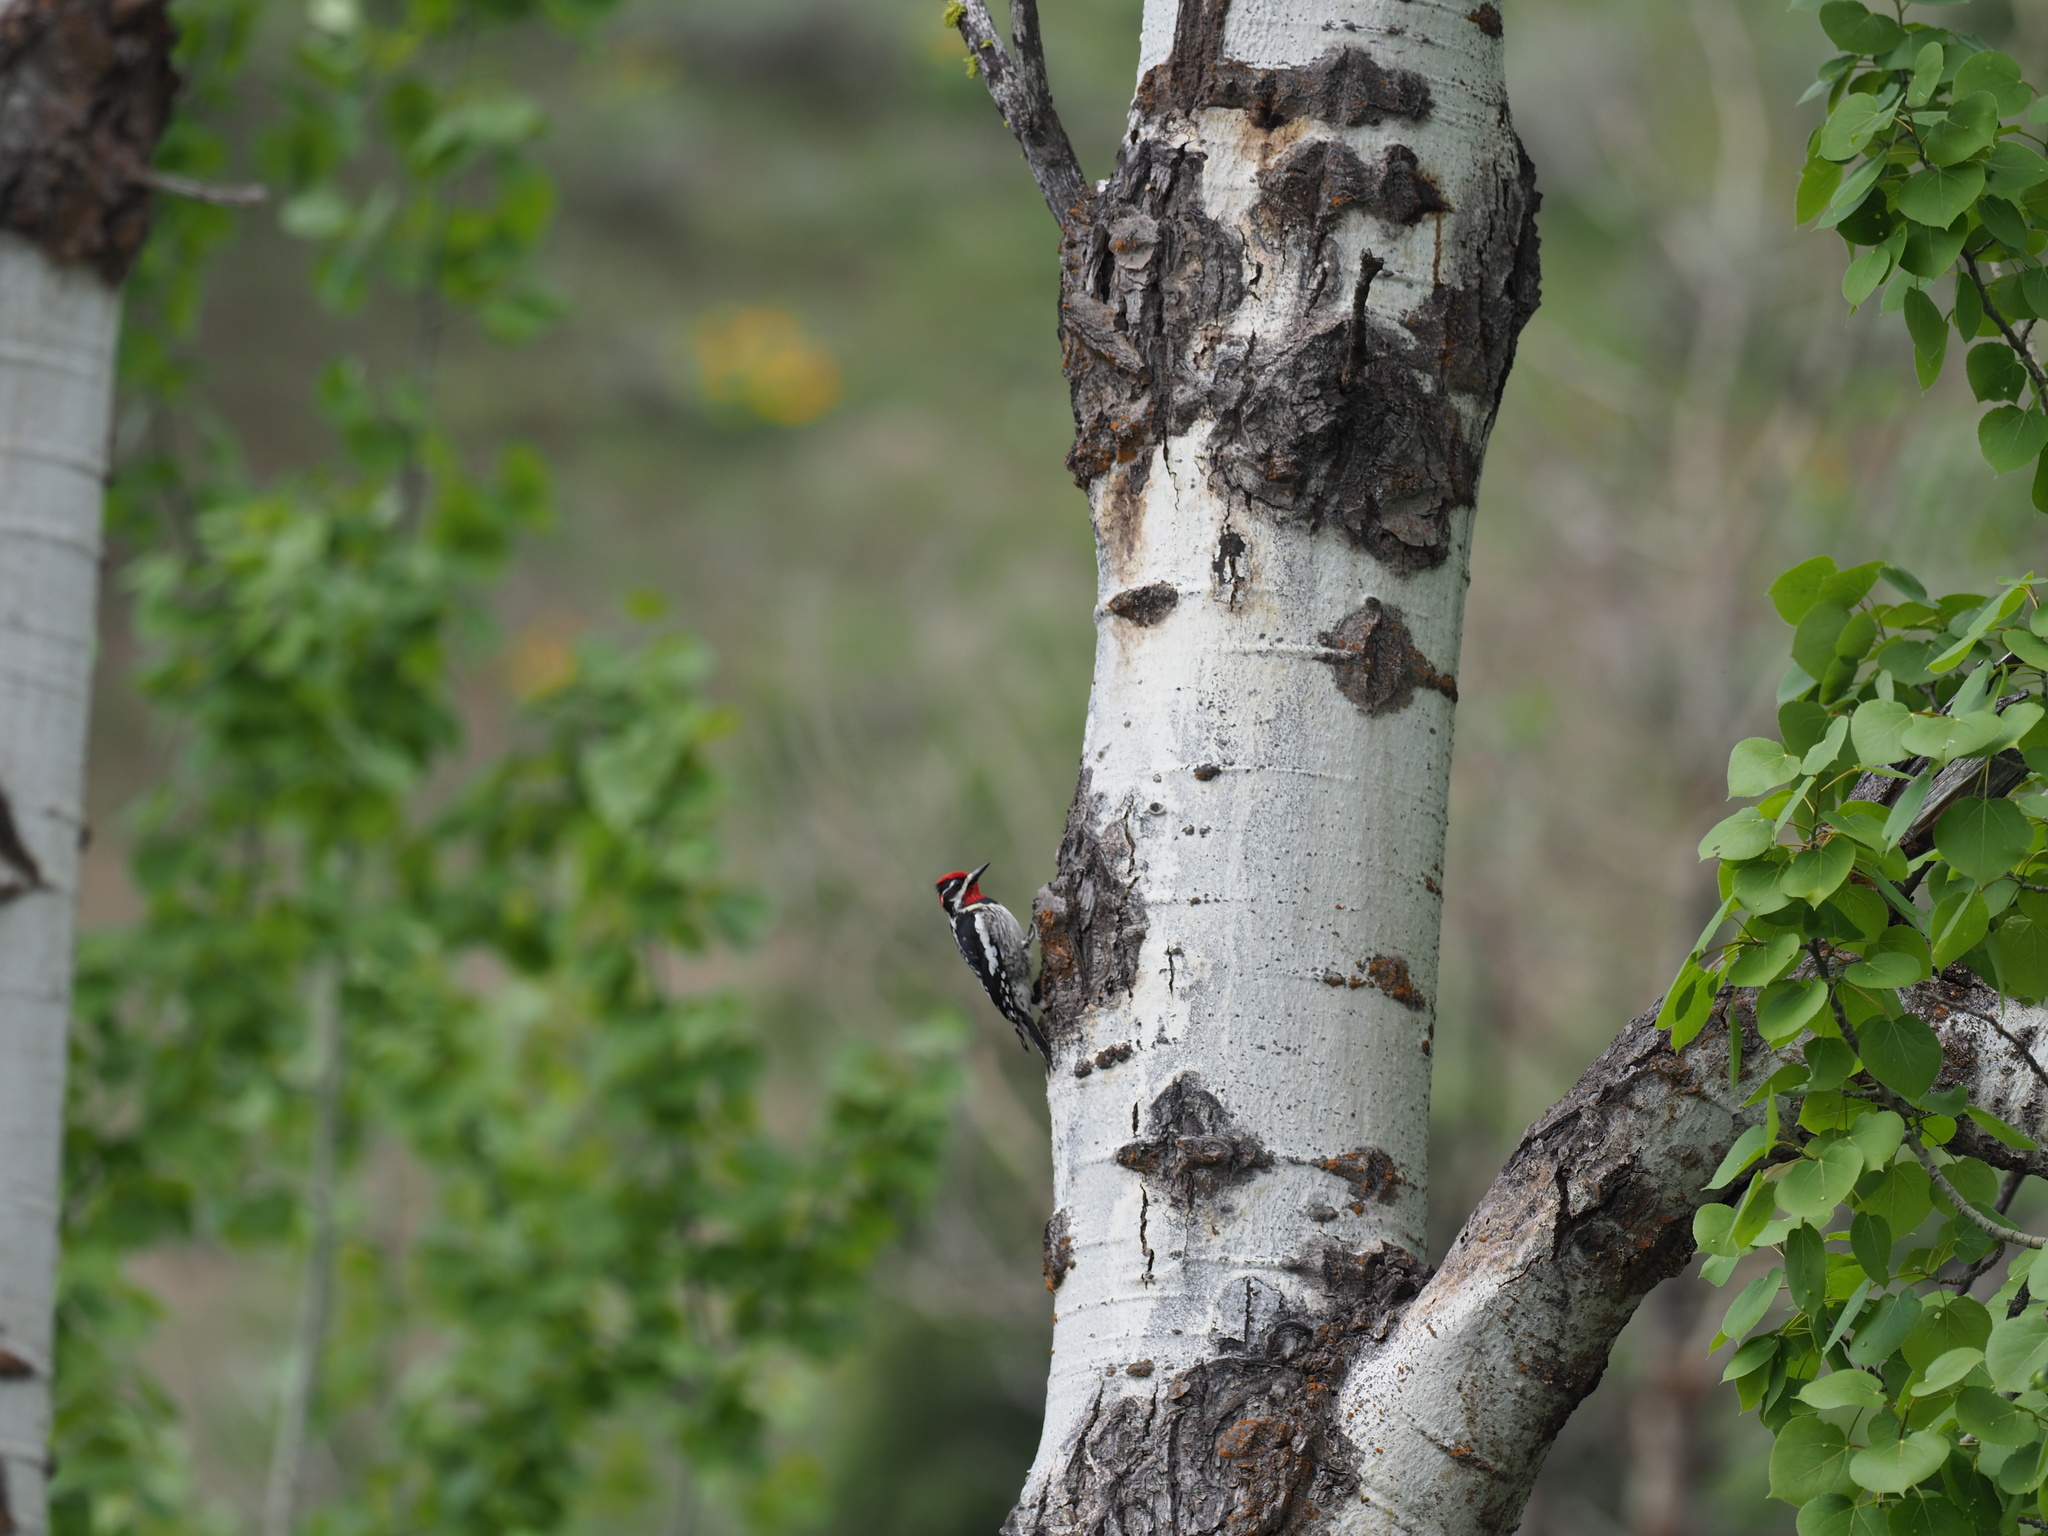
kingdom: Animalia
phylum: Chordata
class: Aves
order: Piciformes
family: Picidae
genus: Sphyrapicus
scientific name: Sphyrapicus nuchalis
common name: Red-naped sapsucker
